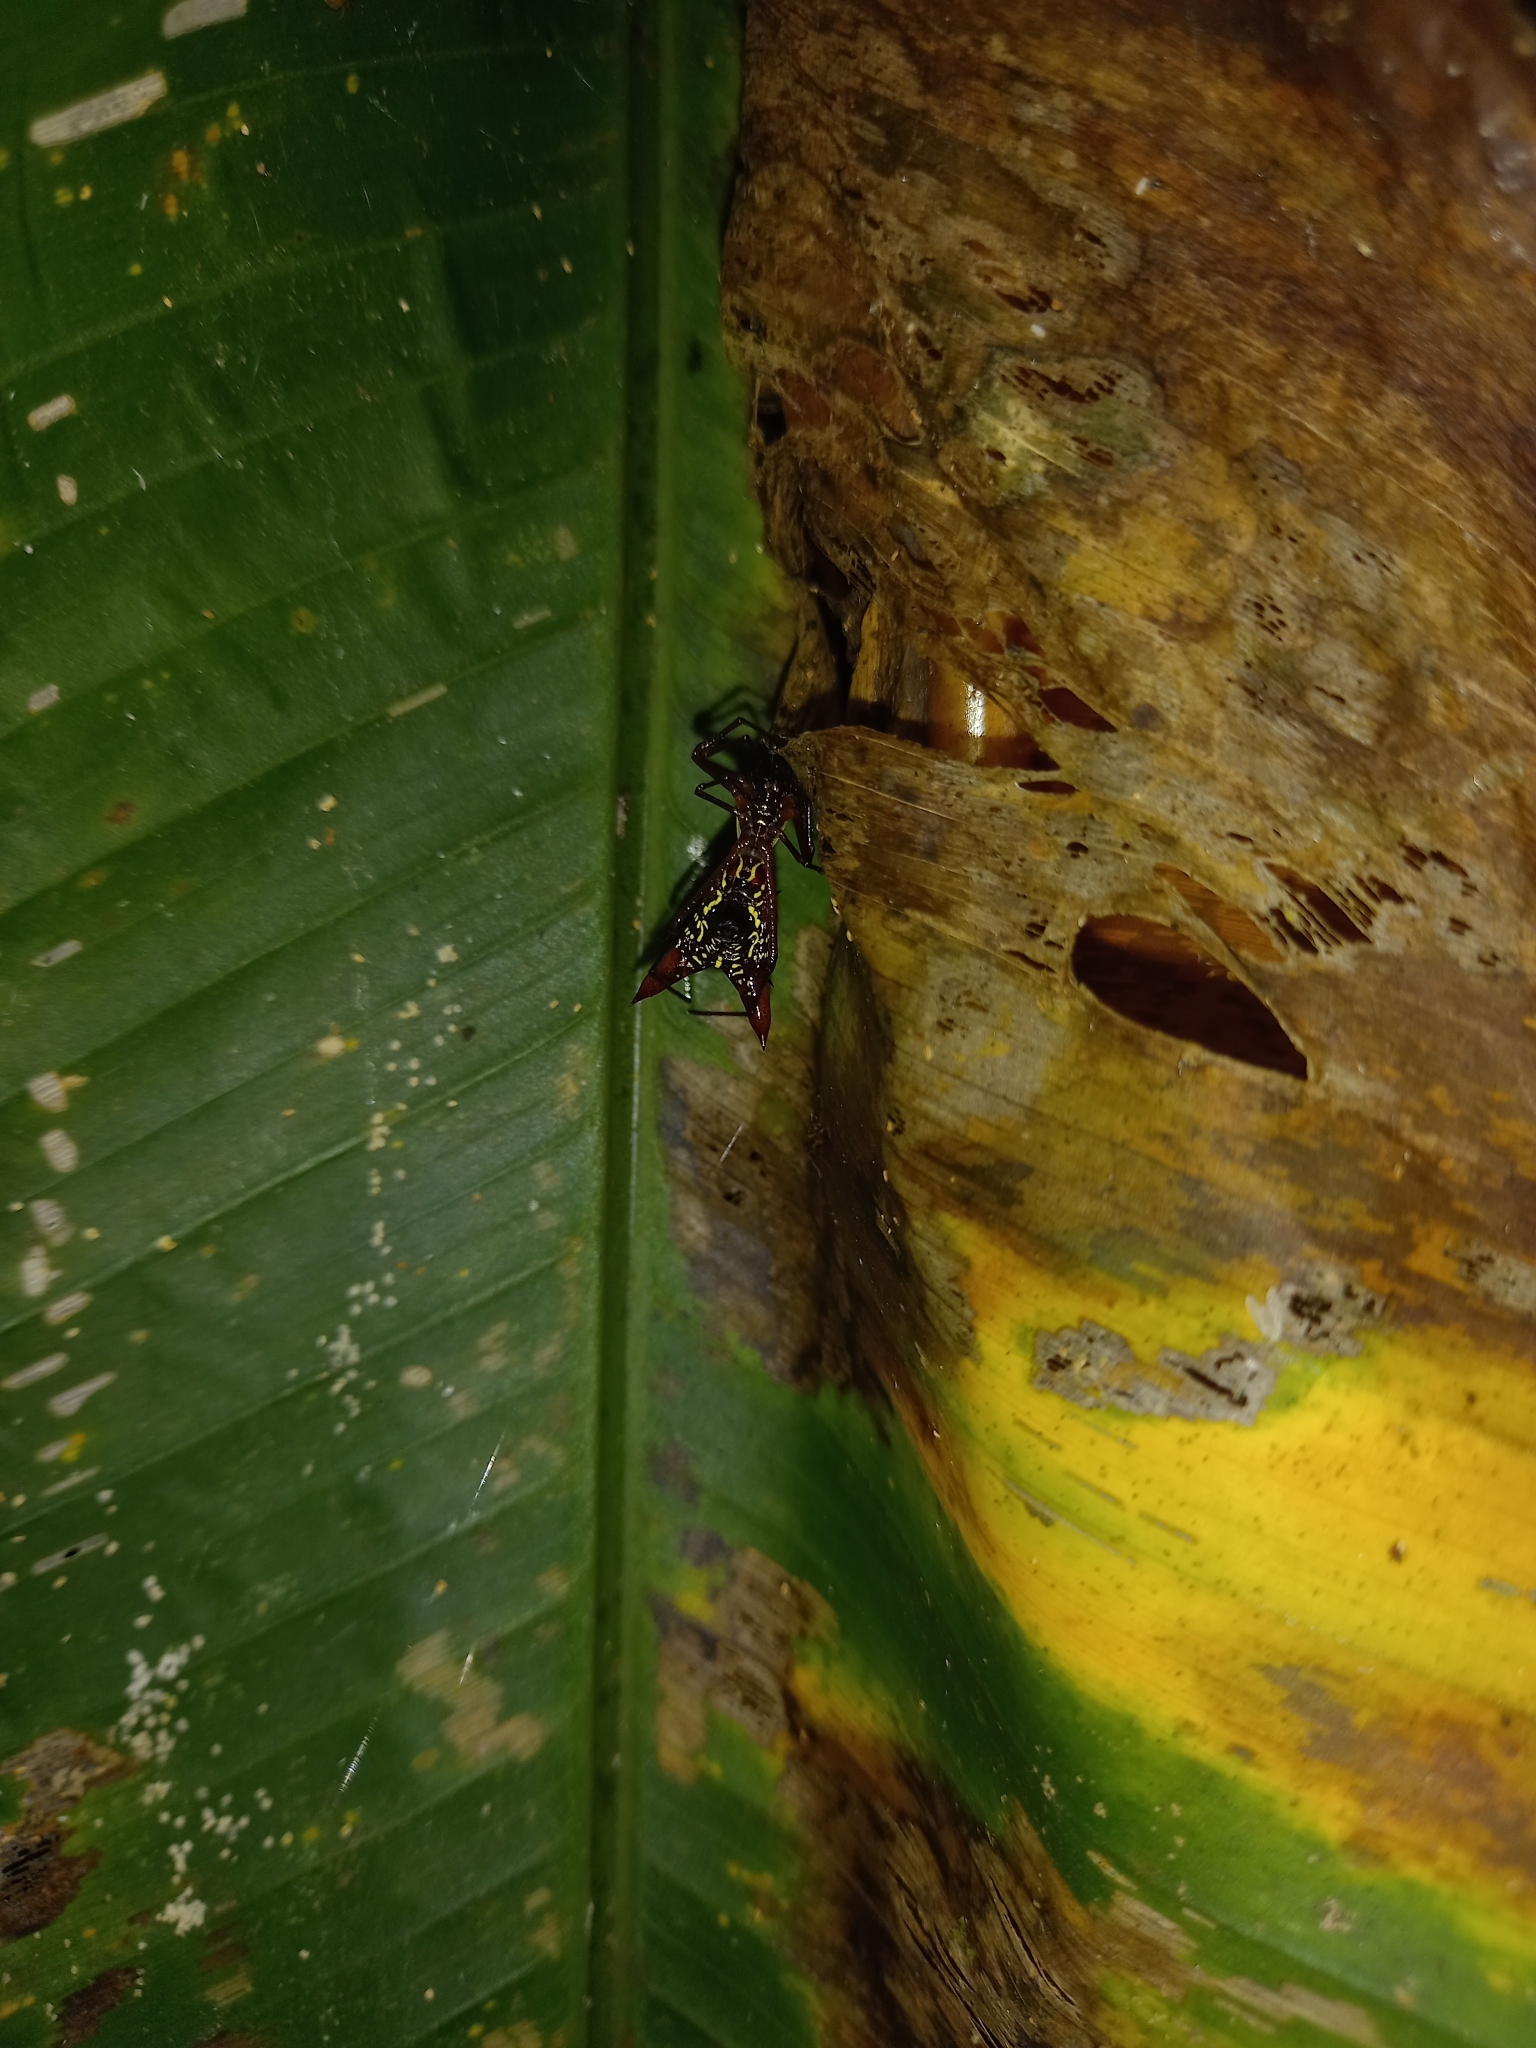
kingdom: Animalia
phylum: Arthropoda
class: Arachnida
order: Araneae
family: Araneidae
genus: Micrathena
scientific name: Micrathena sexspinosa
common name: Orb weavers
